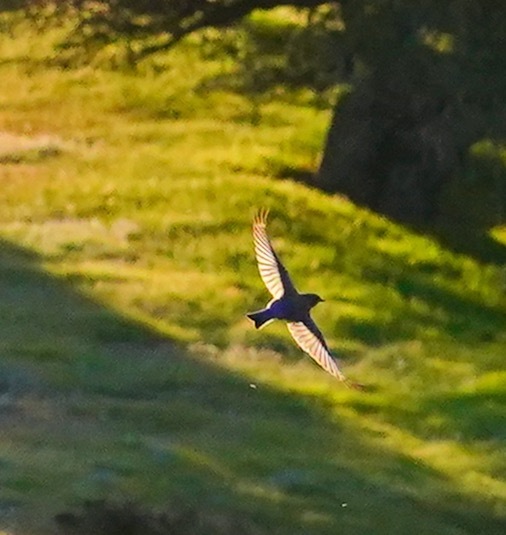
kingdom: Animalia
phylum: Chordata
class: Aves
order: Passeriformes
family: Turdidae
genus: Sialia
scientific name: Sialia mexicana
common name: Western bluebird
